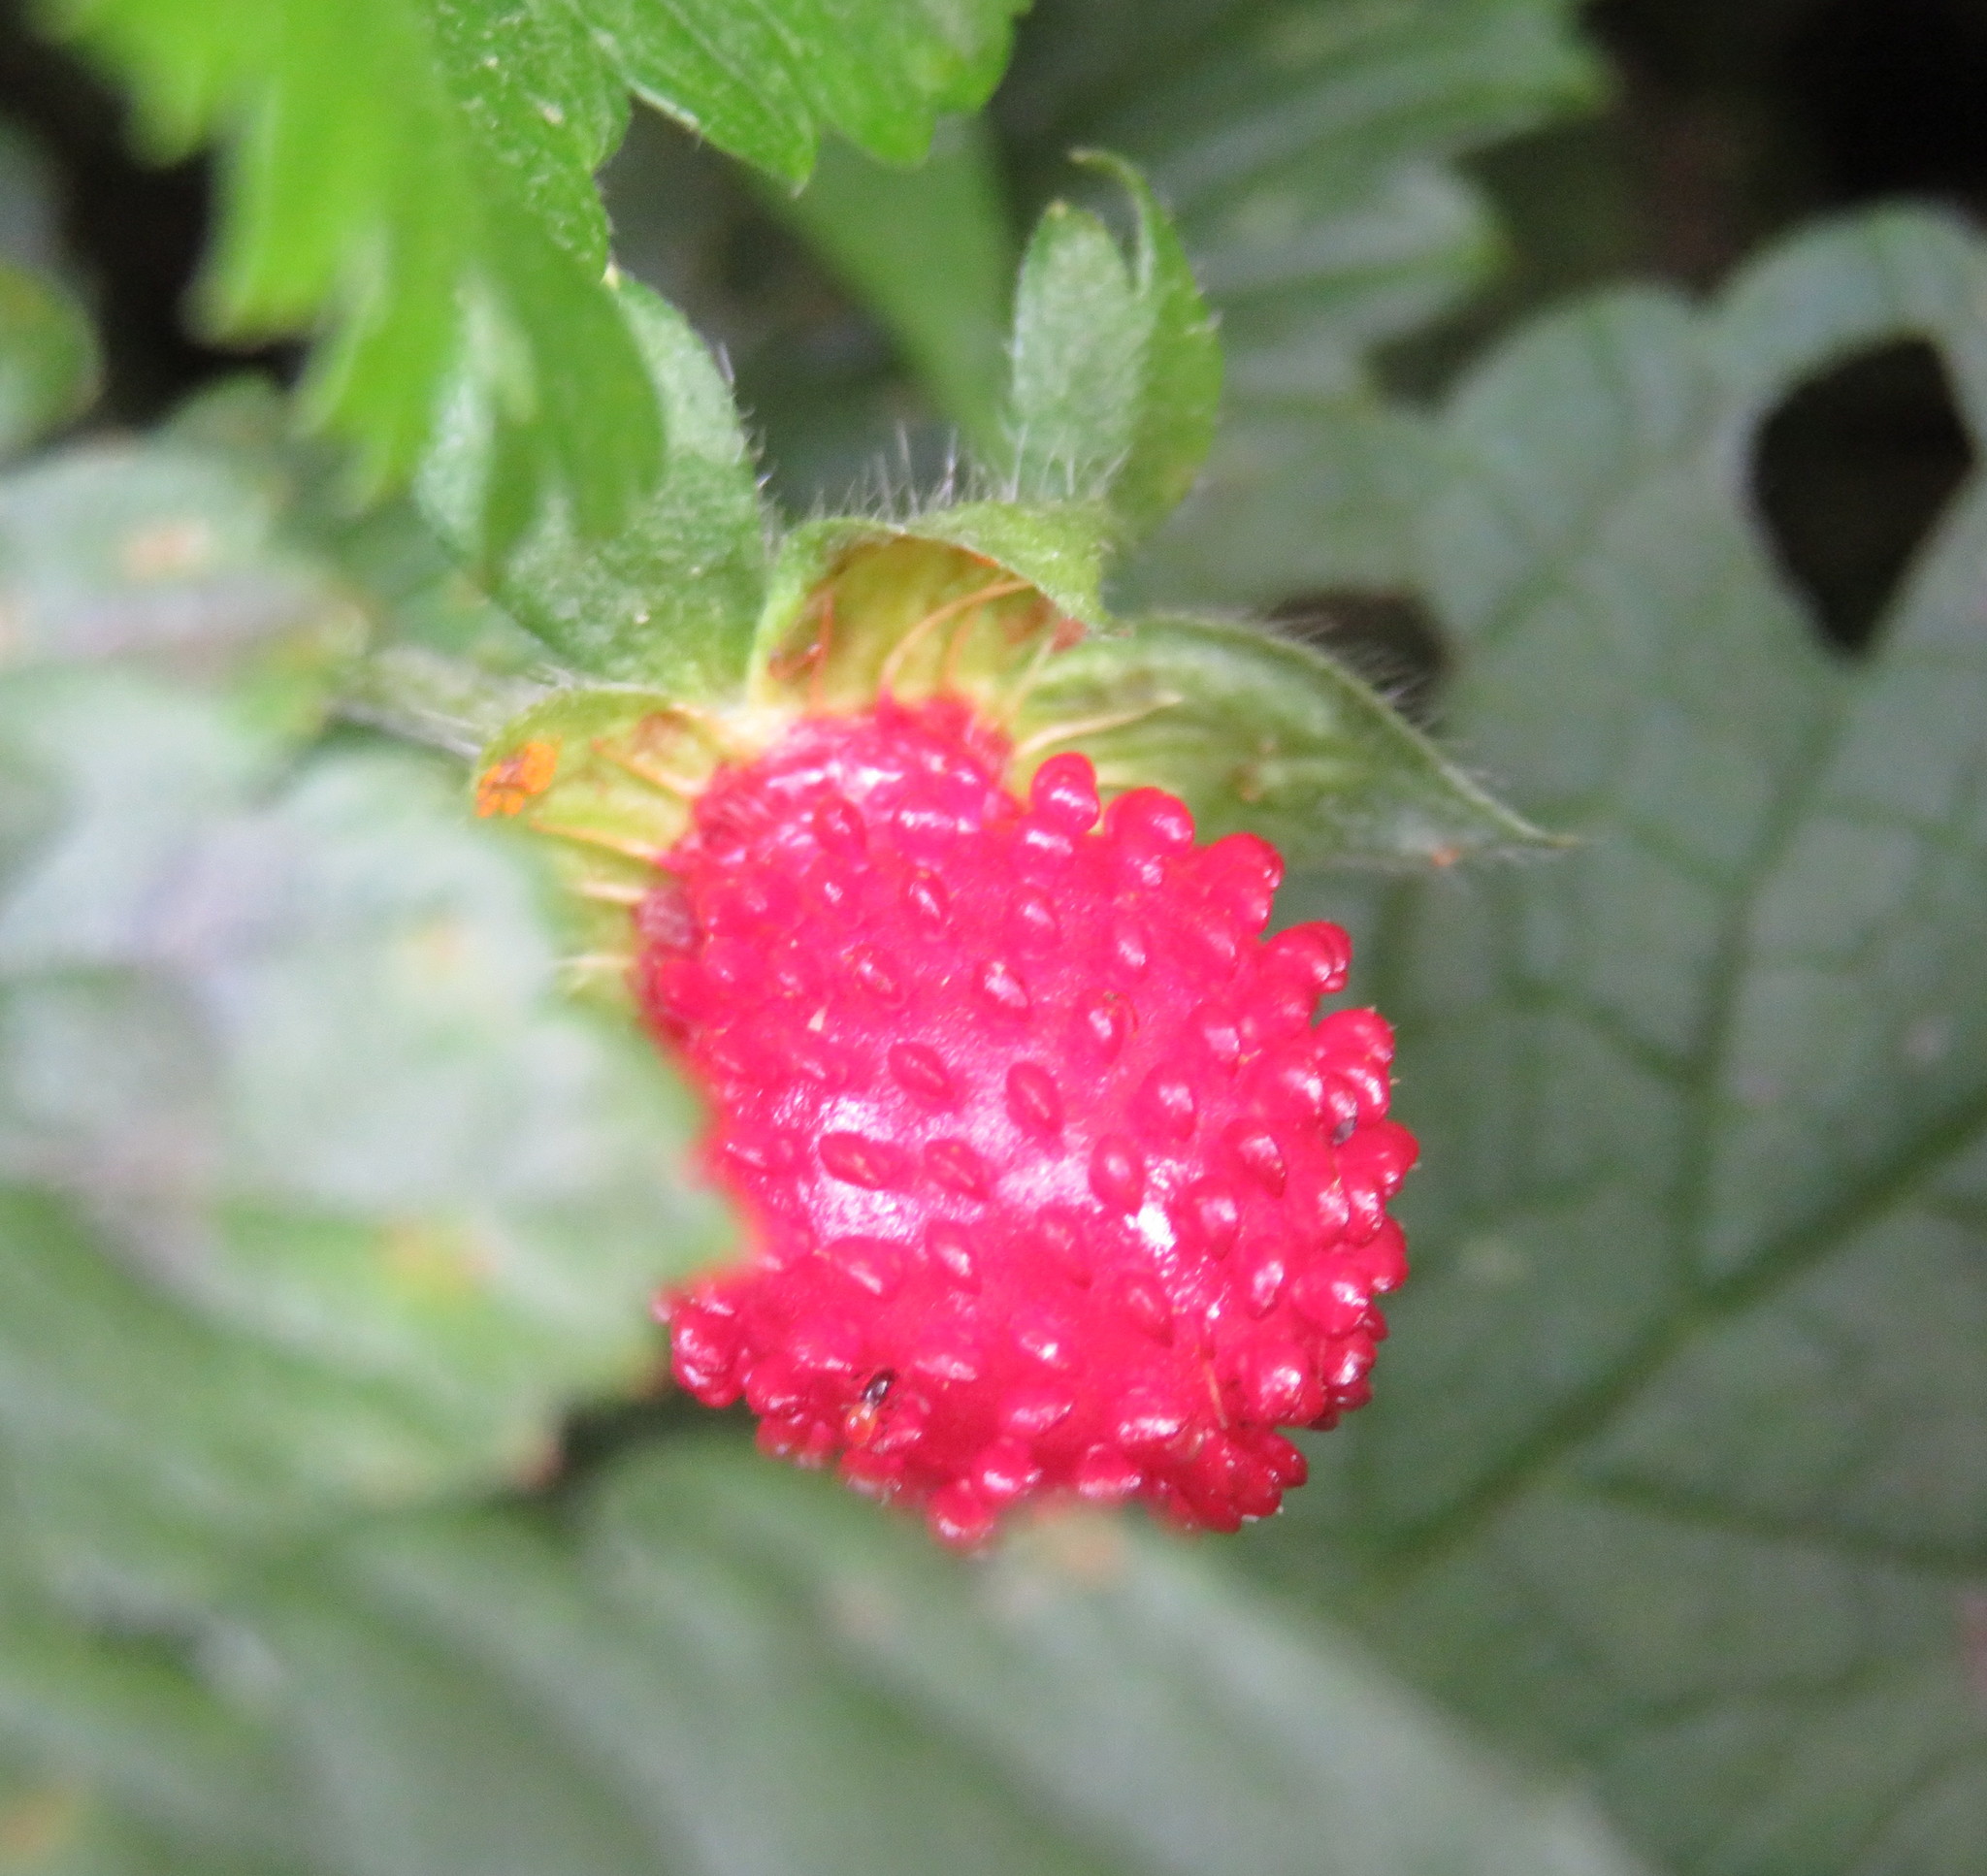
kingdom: Plantae
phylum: Tracheophyta
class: Magnoliopsida
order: Rosales
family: Rosaceae
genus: Potentilla
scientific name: Potentilla indica
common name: Yellow-flowered strawberry
